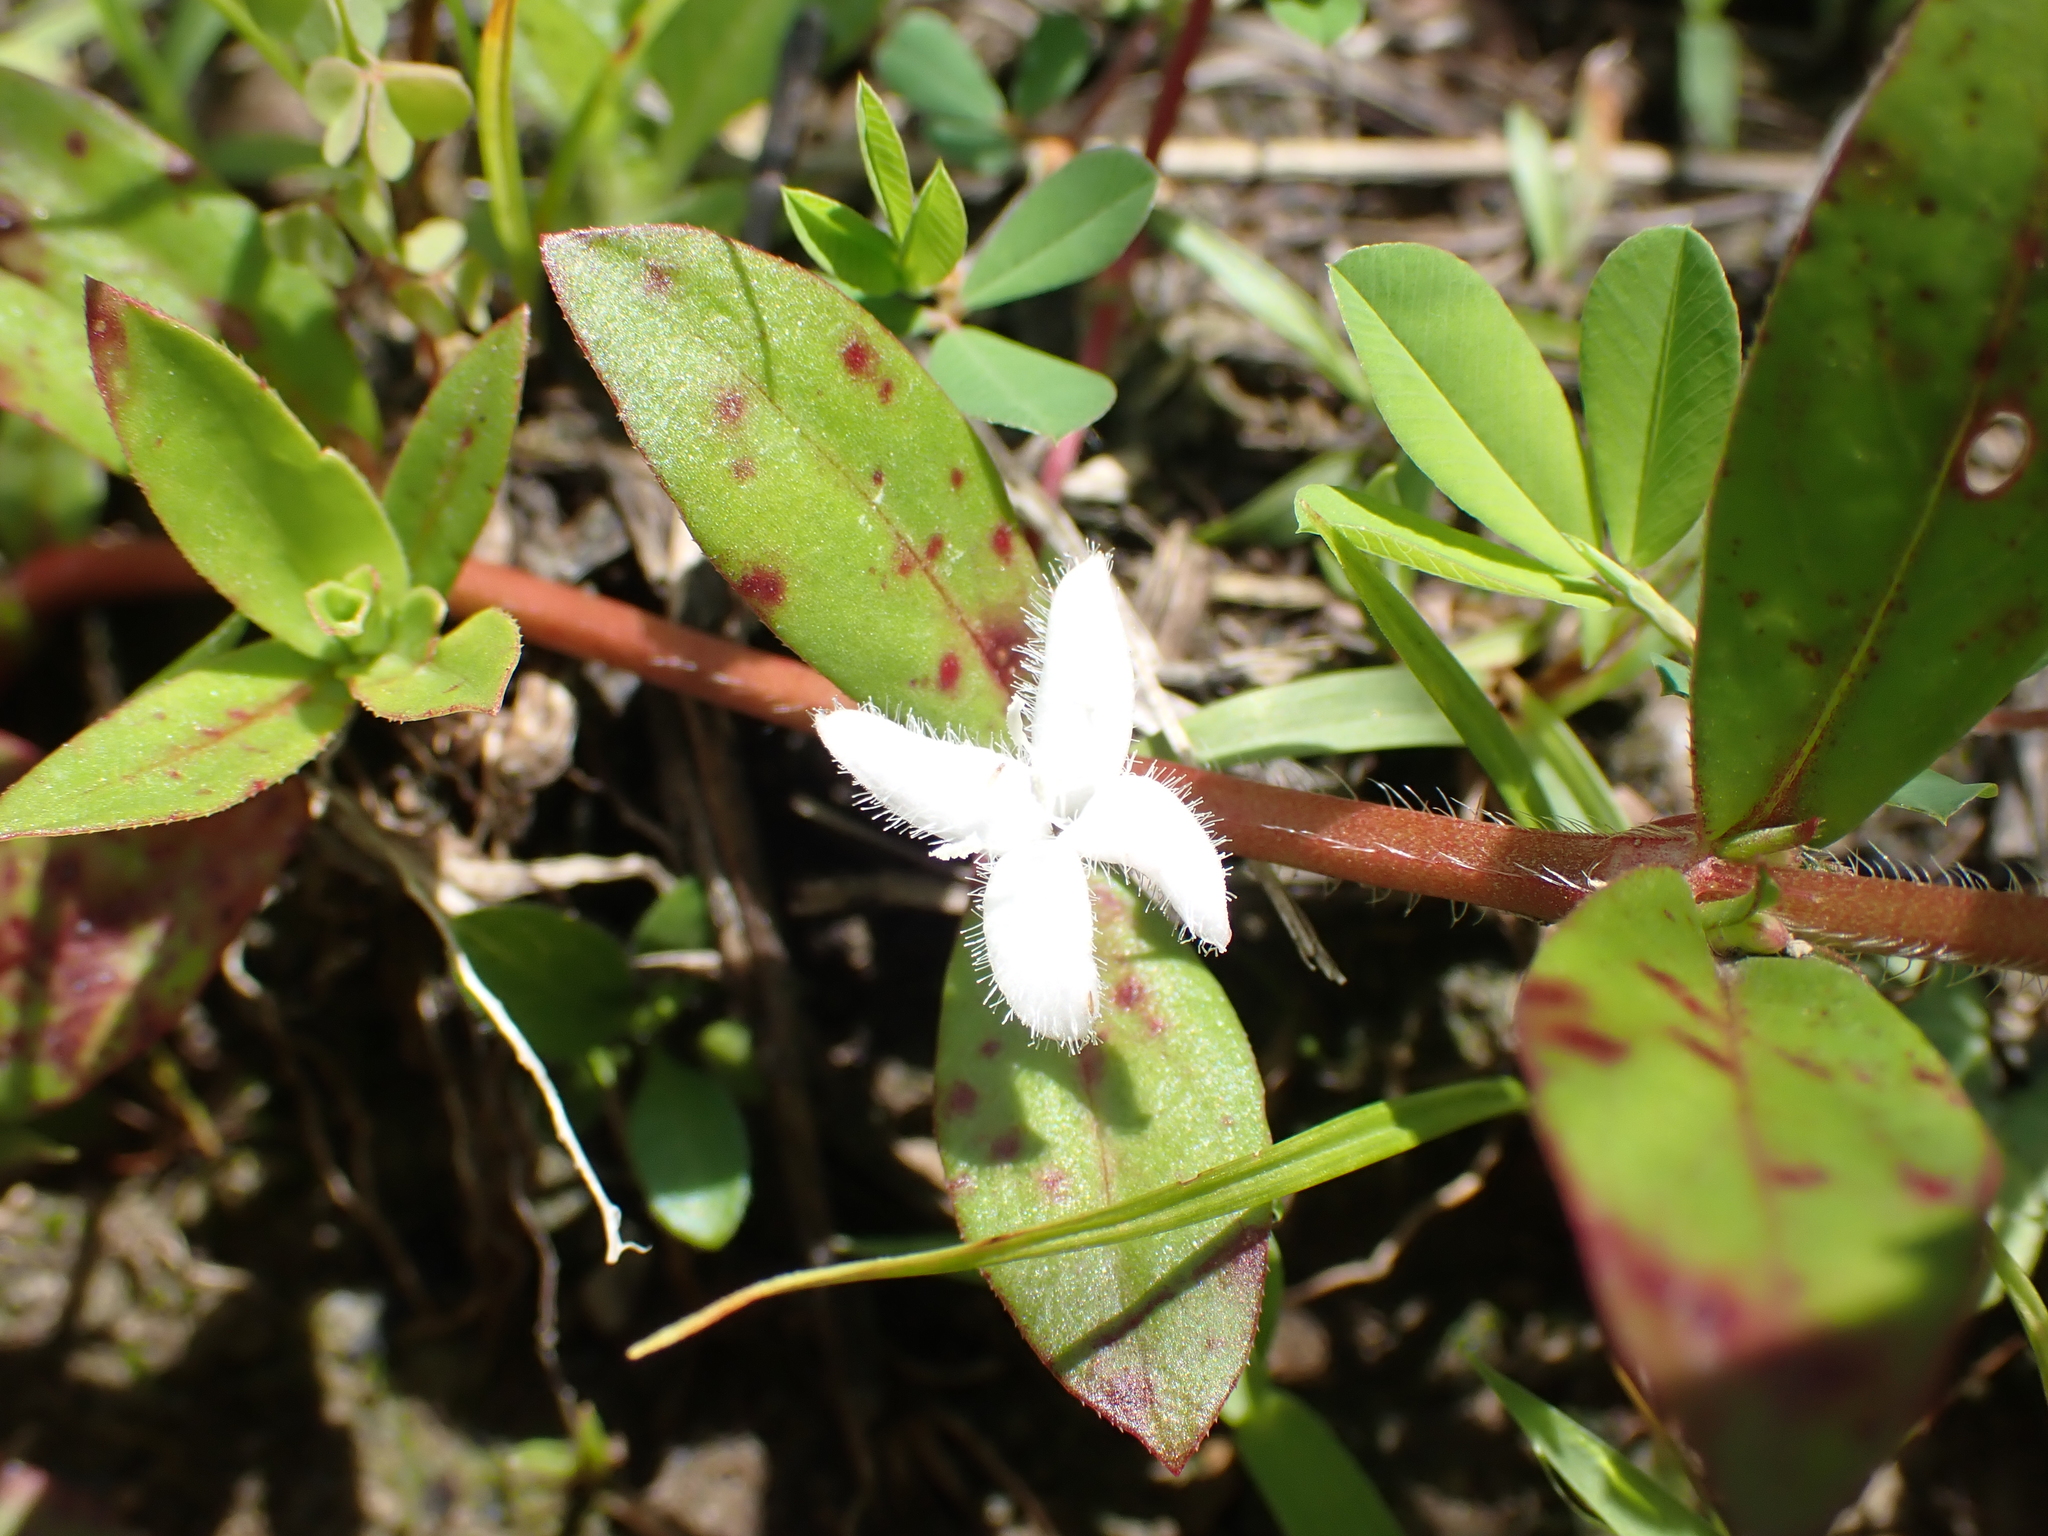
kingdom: Plantae
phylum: Tracheophyta
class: Magnoliopsida
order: Gentianales
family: Rubiaceae
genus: Diodia
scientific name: Diodia virginiana
